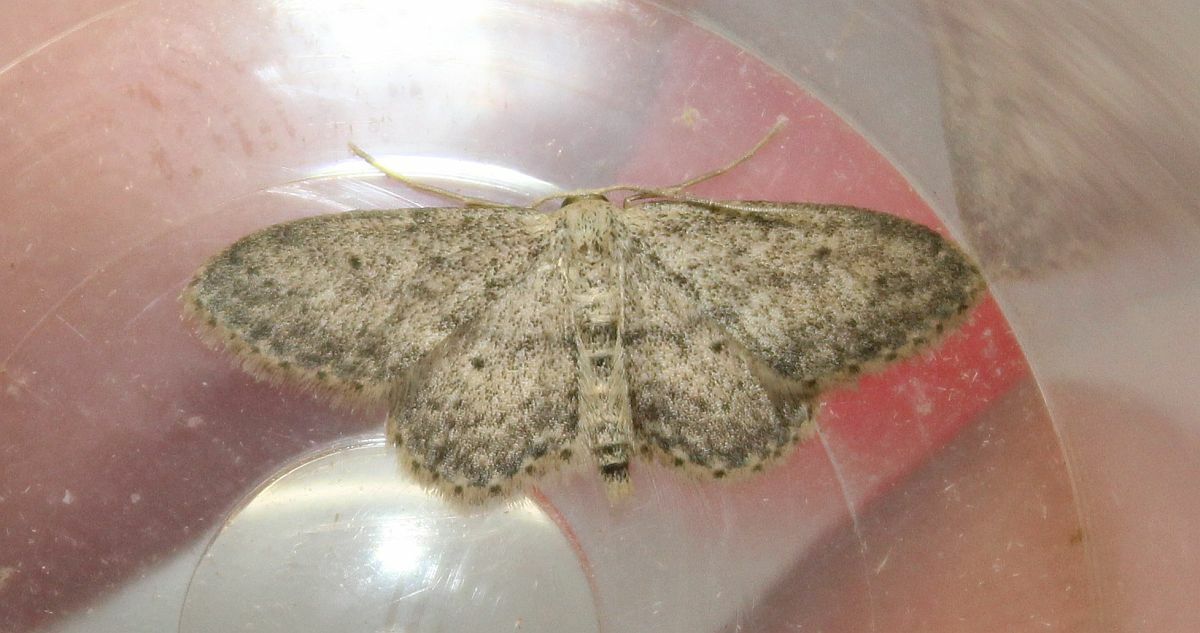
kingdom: Animalia
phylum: Arthropoda
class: Insecta
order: Lepidoptera
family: Geometridae
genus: Idaea
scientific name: Idaea seriata
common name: Small dusty wave
